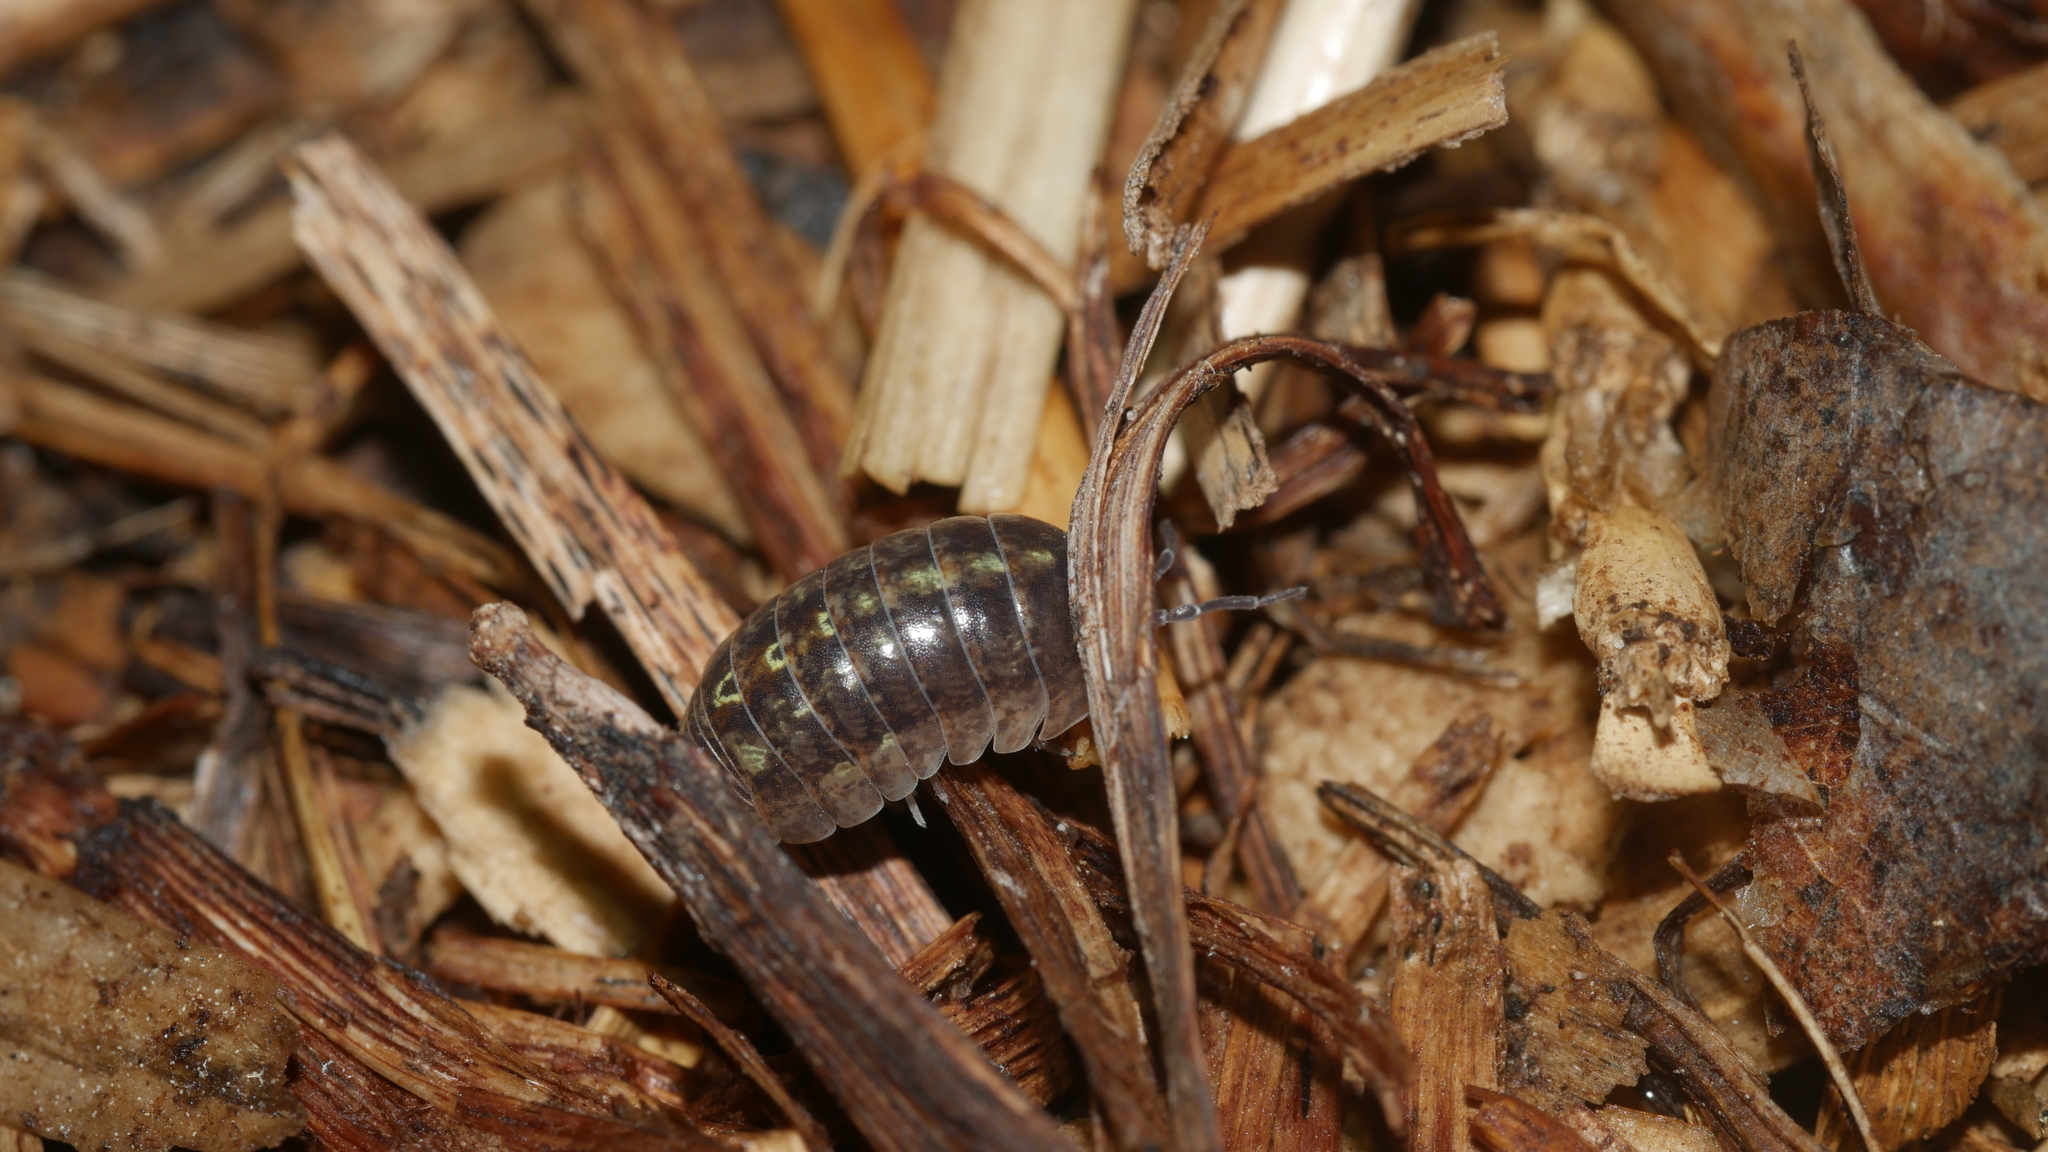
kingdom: Animalia
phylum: Arthropoda
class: Malacostraca
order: Isopoda
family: Armadillidiidae
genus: Armadillidium
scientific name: Armadillidium vulgare
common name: Common pill woodlouse
